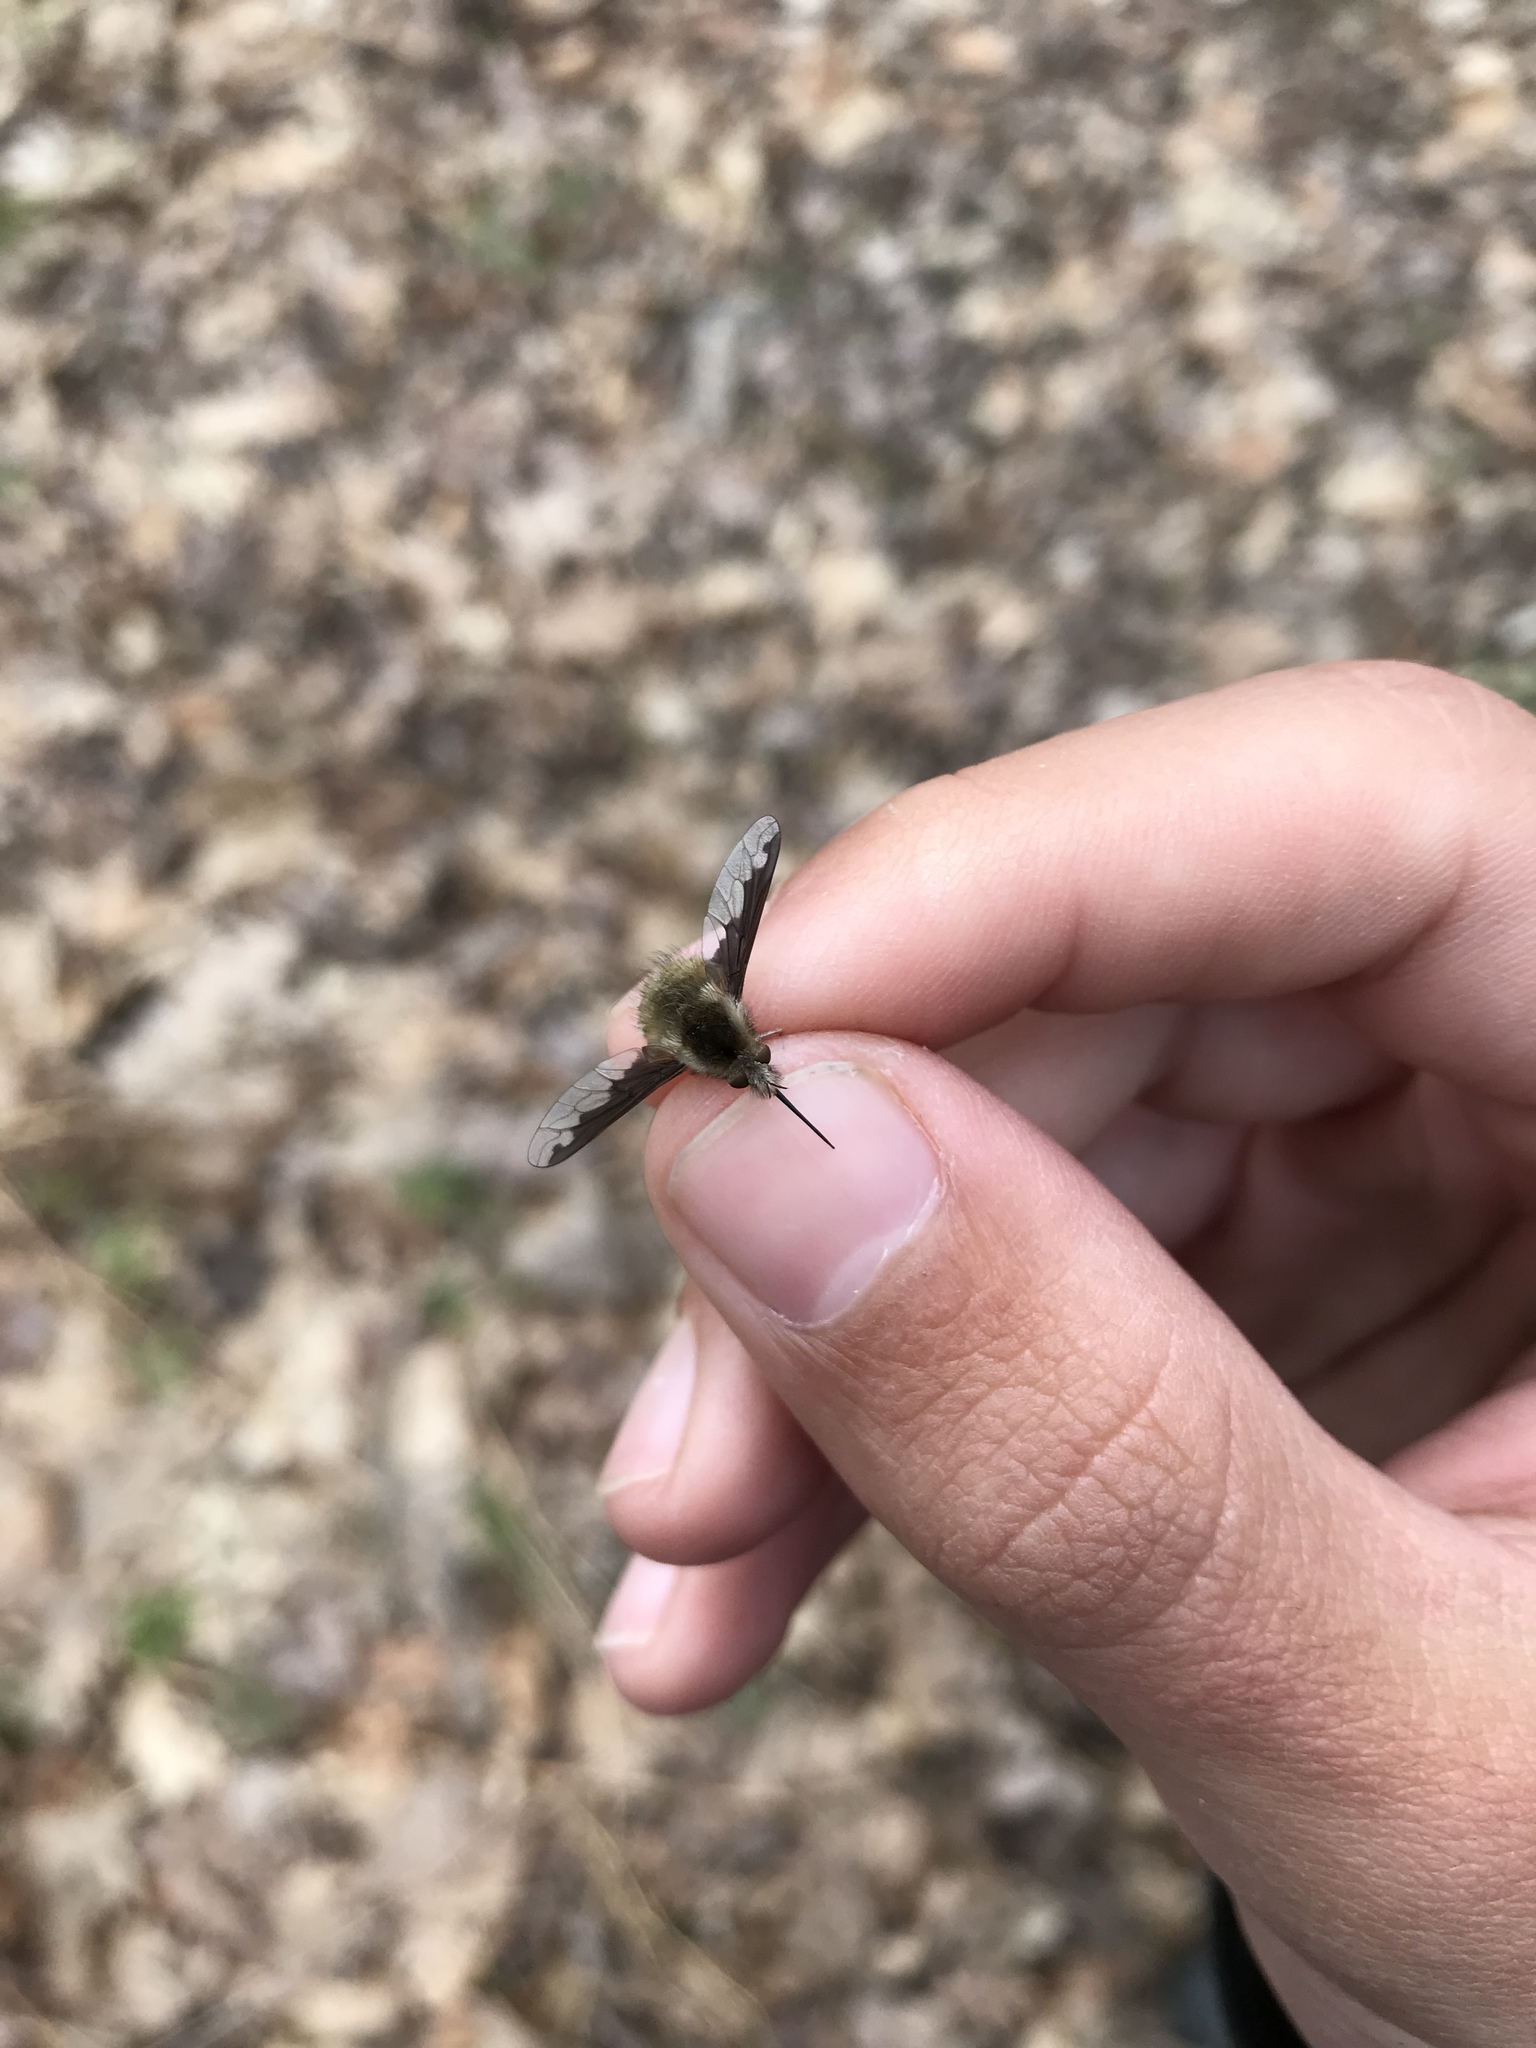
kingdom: Animalia
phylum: Arthropoda
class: Insecta
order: Diptera
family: Bombyliidae
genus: Bombylius
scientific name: Bombylius major
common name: Bee fly
